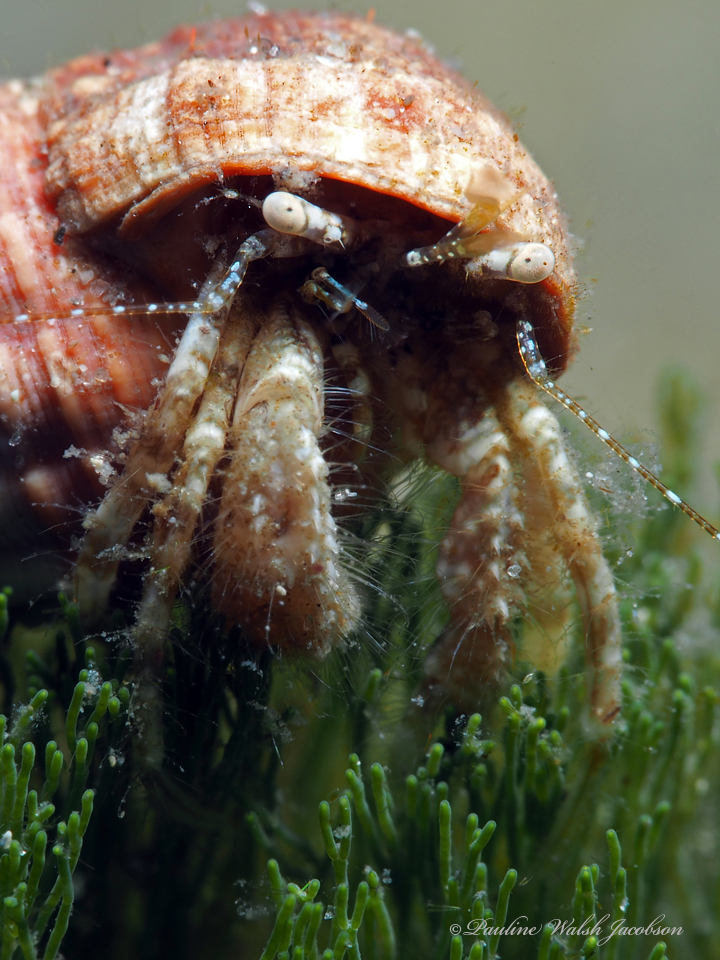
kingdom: Animalia
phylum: Arthropoda
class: Malacostraca
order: Decapoda
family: Paguridae
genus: Pagurus
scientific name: Pagurus maclaughlinae
